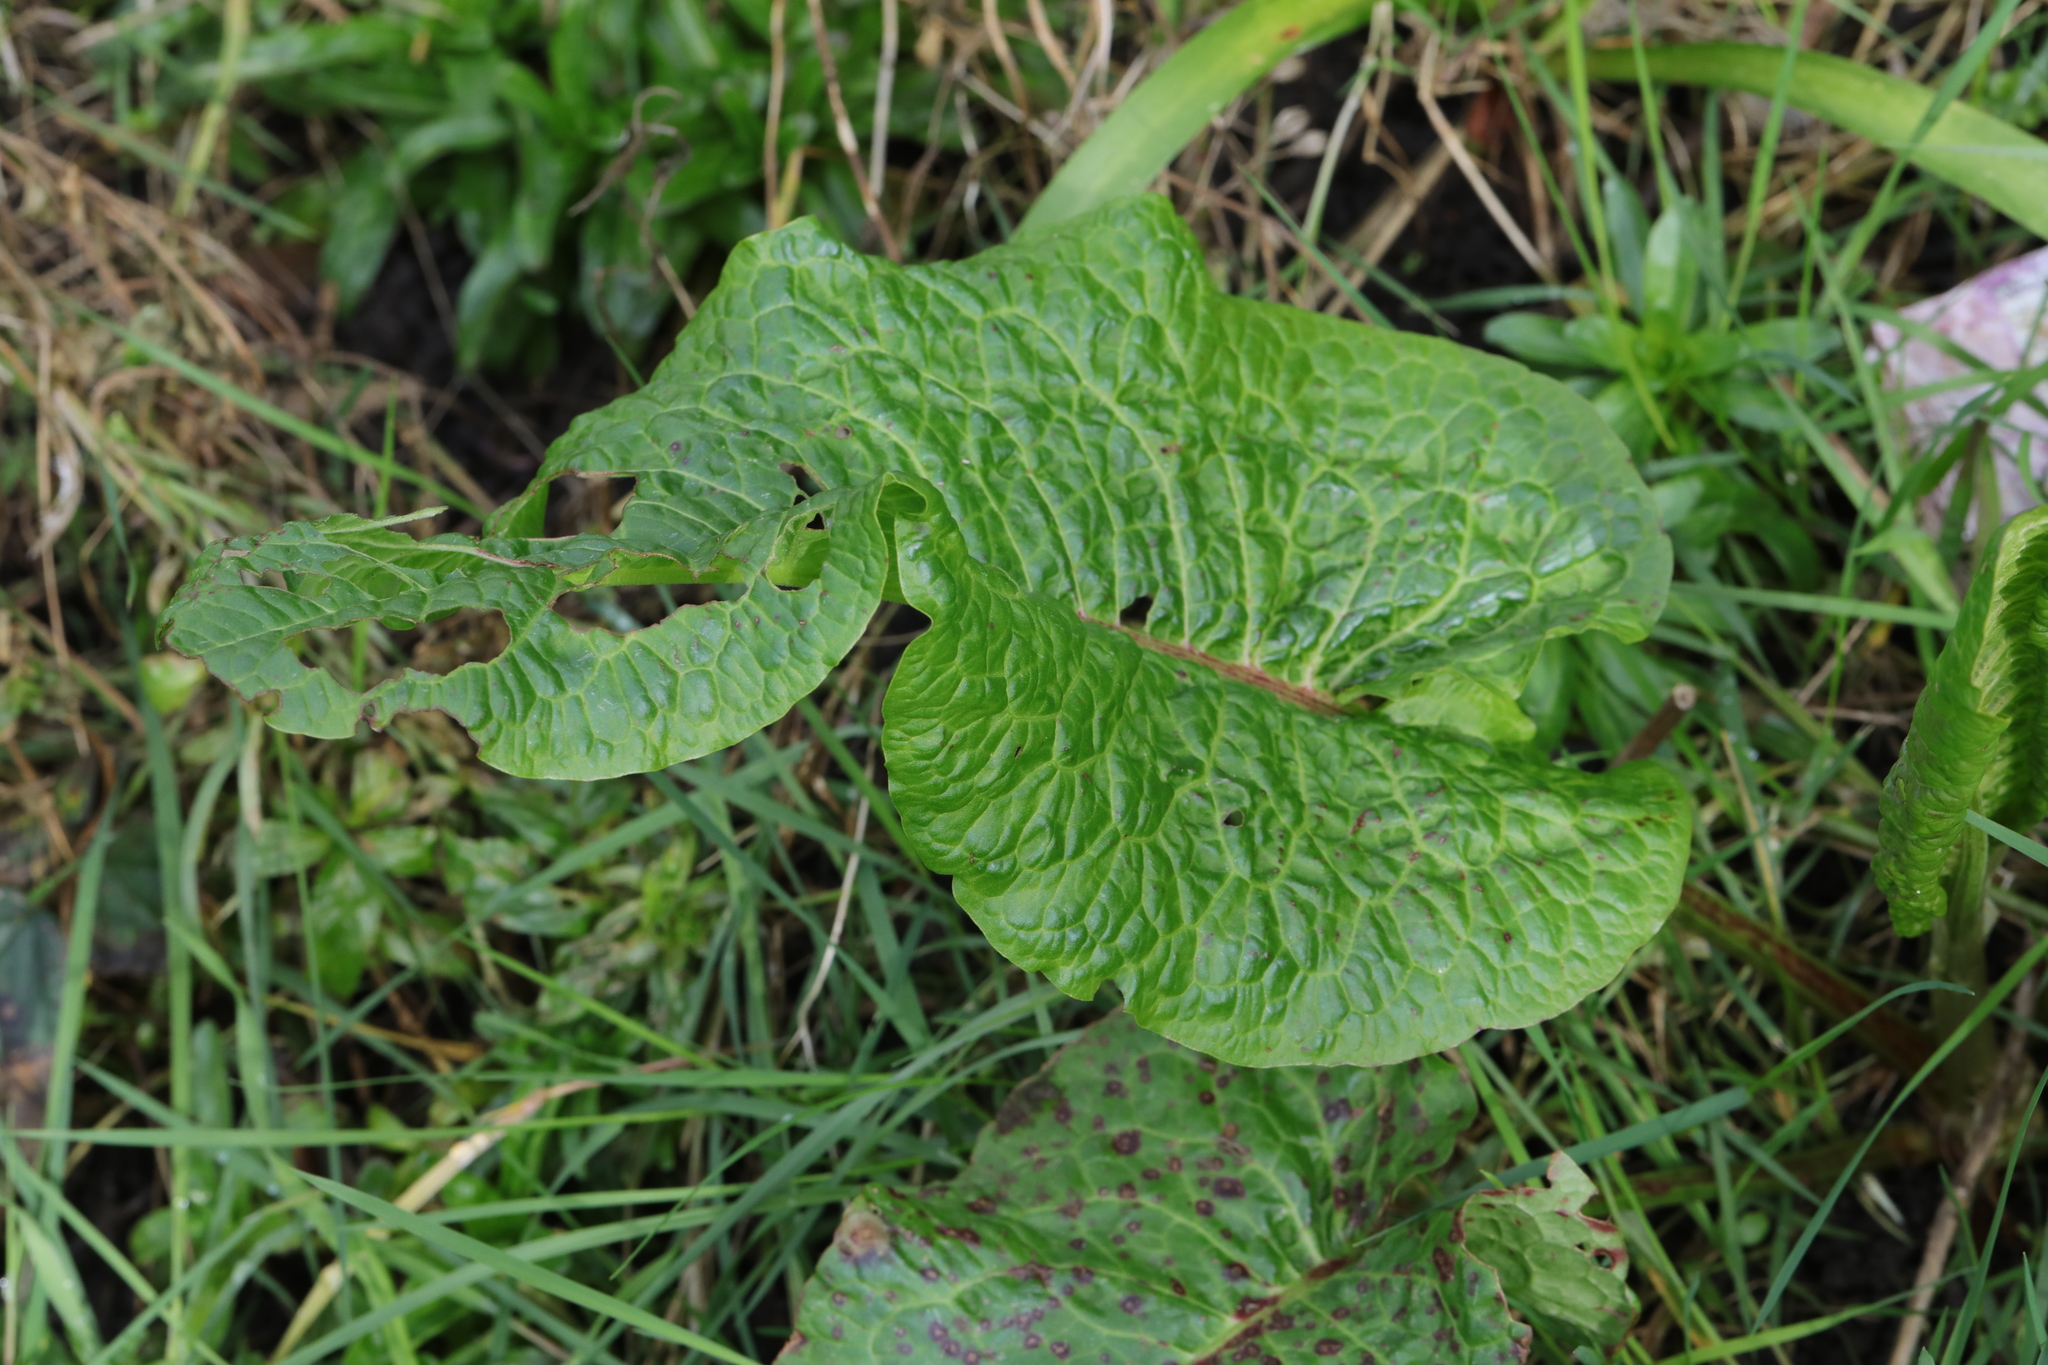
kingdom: Plantae
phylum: Tracheophyta
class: Magnoliopsida
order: Caryophyllales
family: Polygonaceae
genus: Rumex
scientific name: Rumex obtusifolius
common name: Bitter dock
